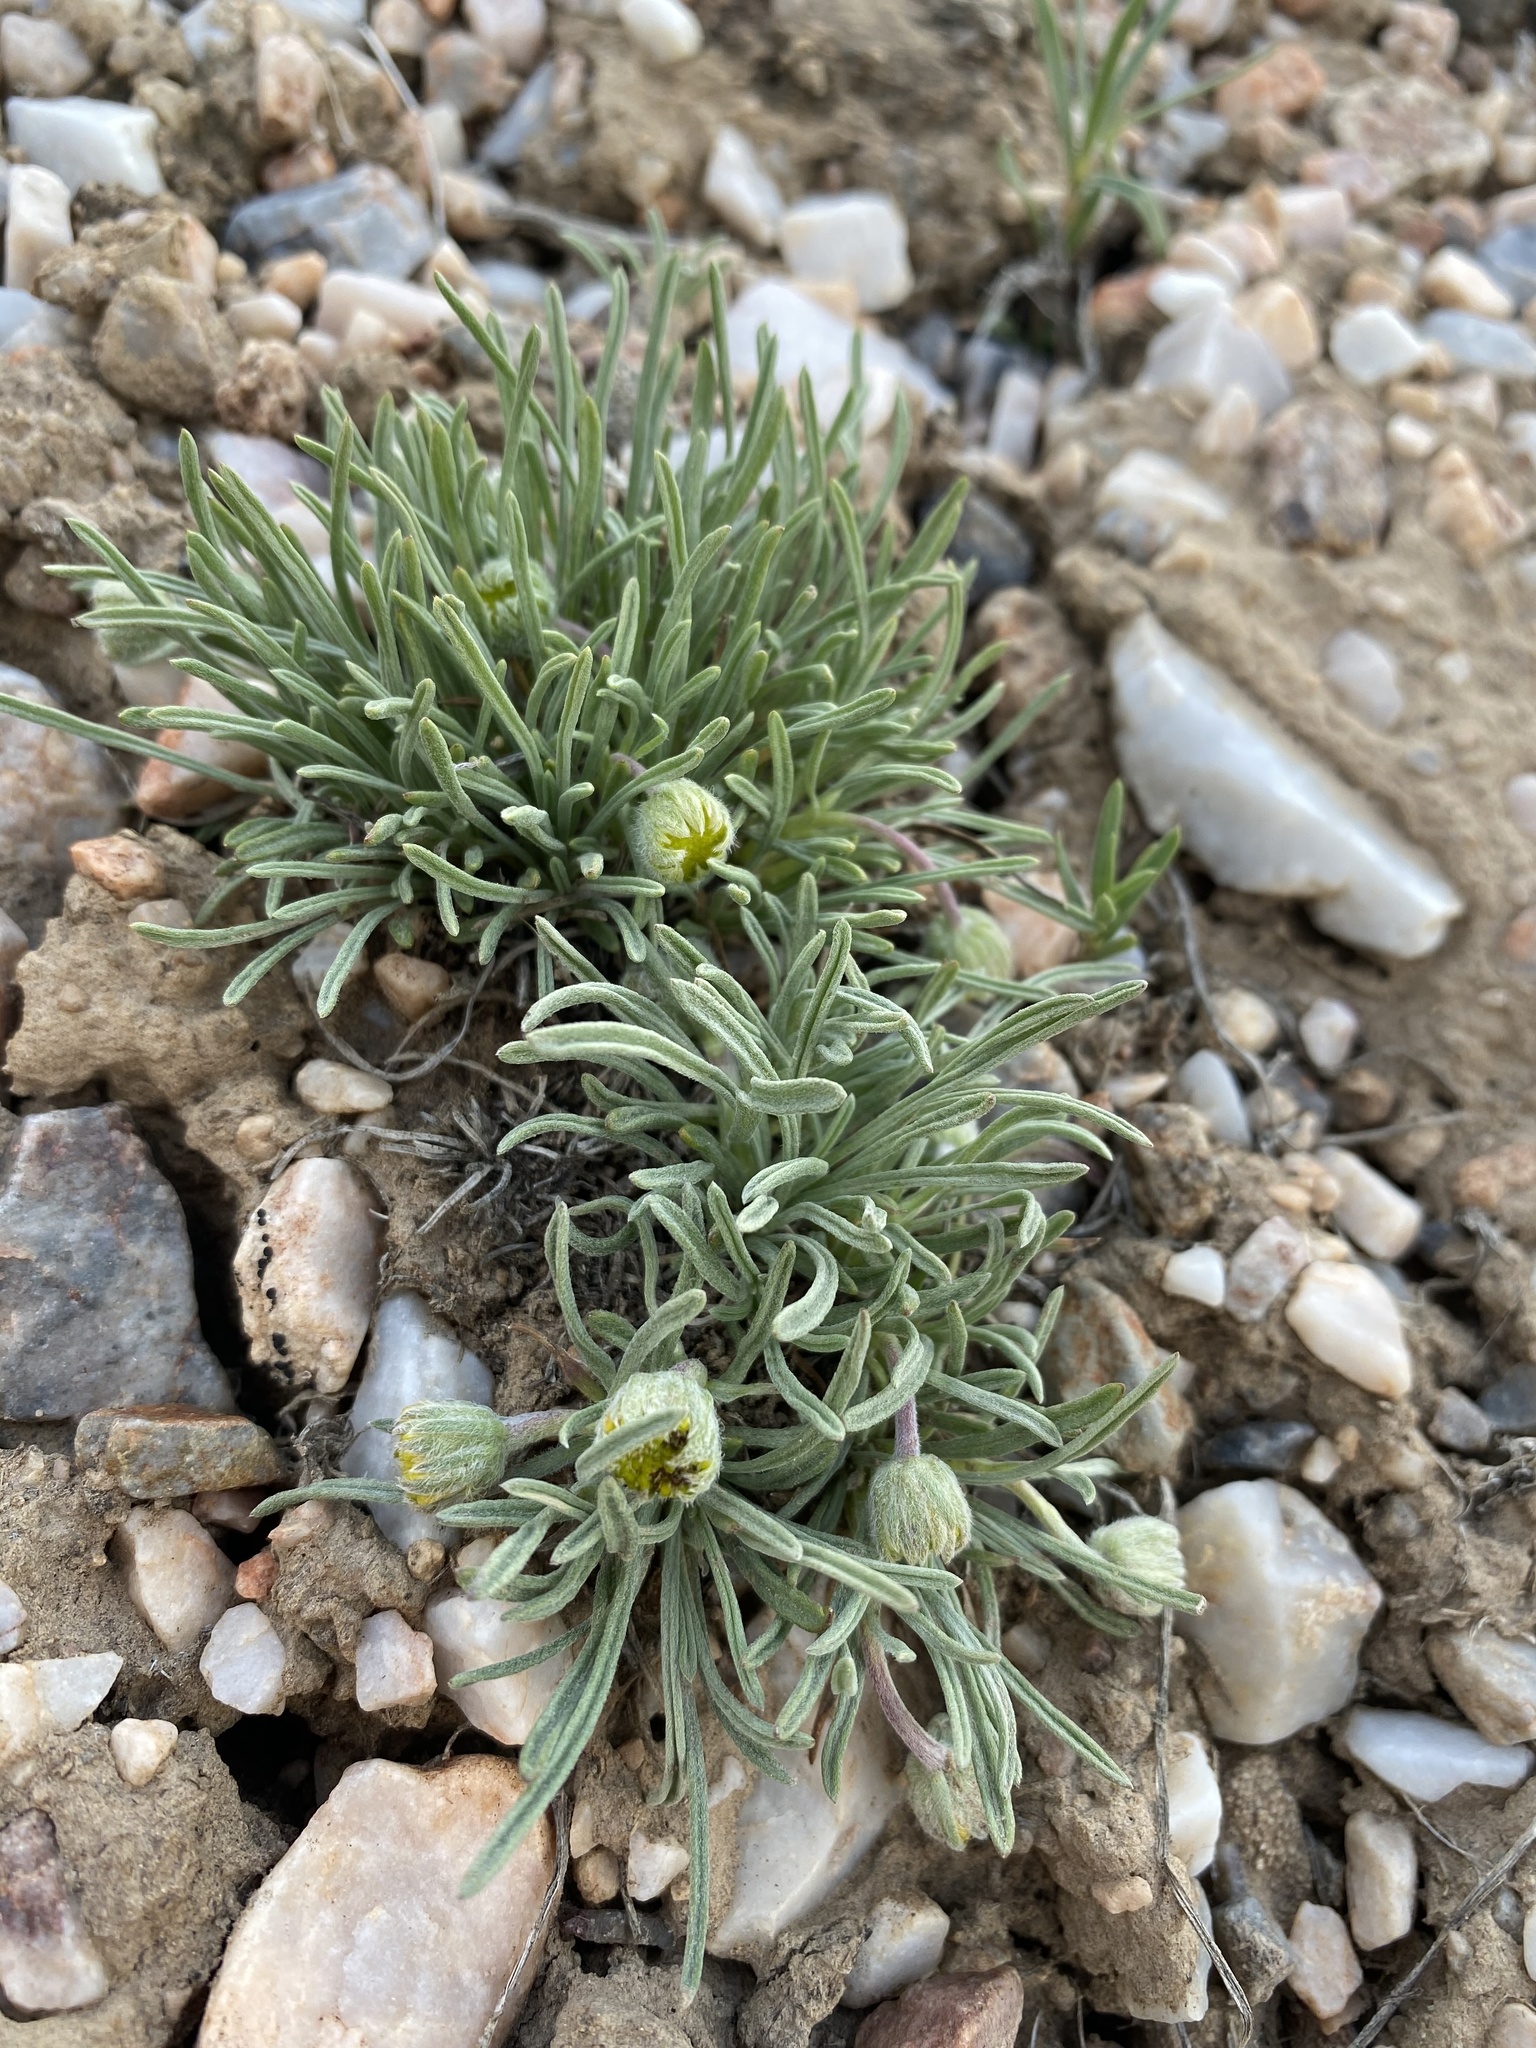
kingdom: Plantae
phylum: Tracheophyta
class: Magnoliopsida
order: Asterales
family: Asteraceae
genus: Erigeron
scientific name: Erigeron bloomeri
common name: Bloomer's fleabane
